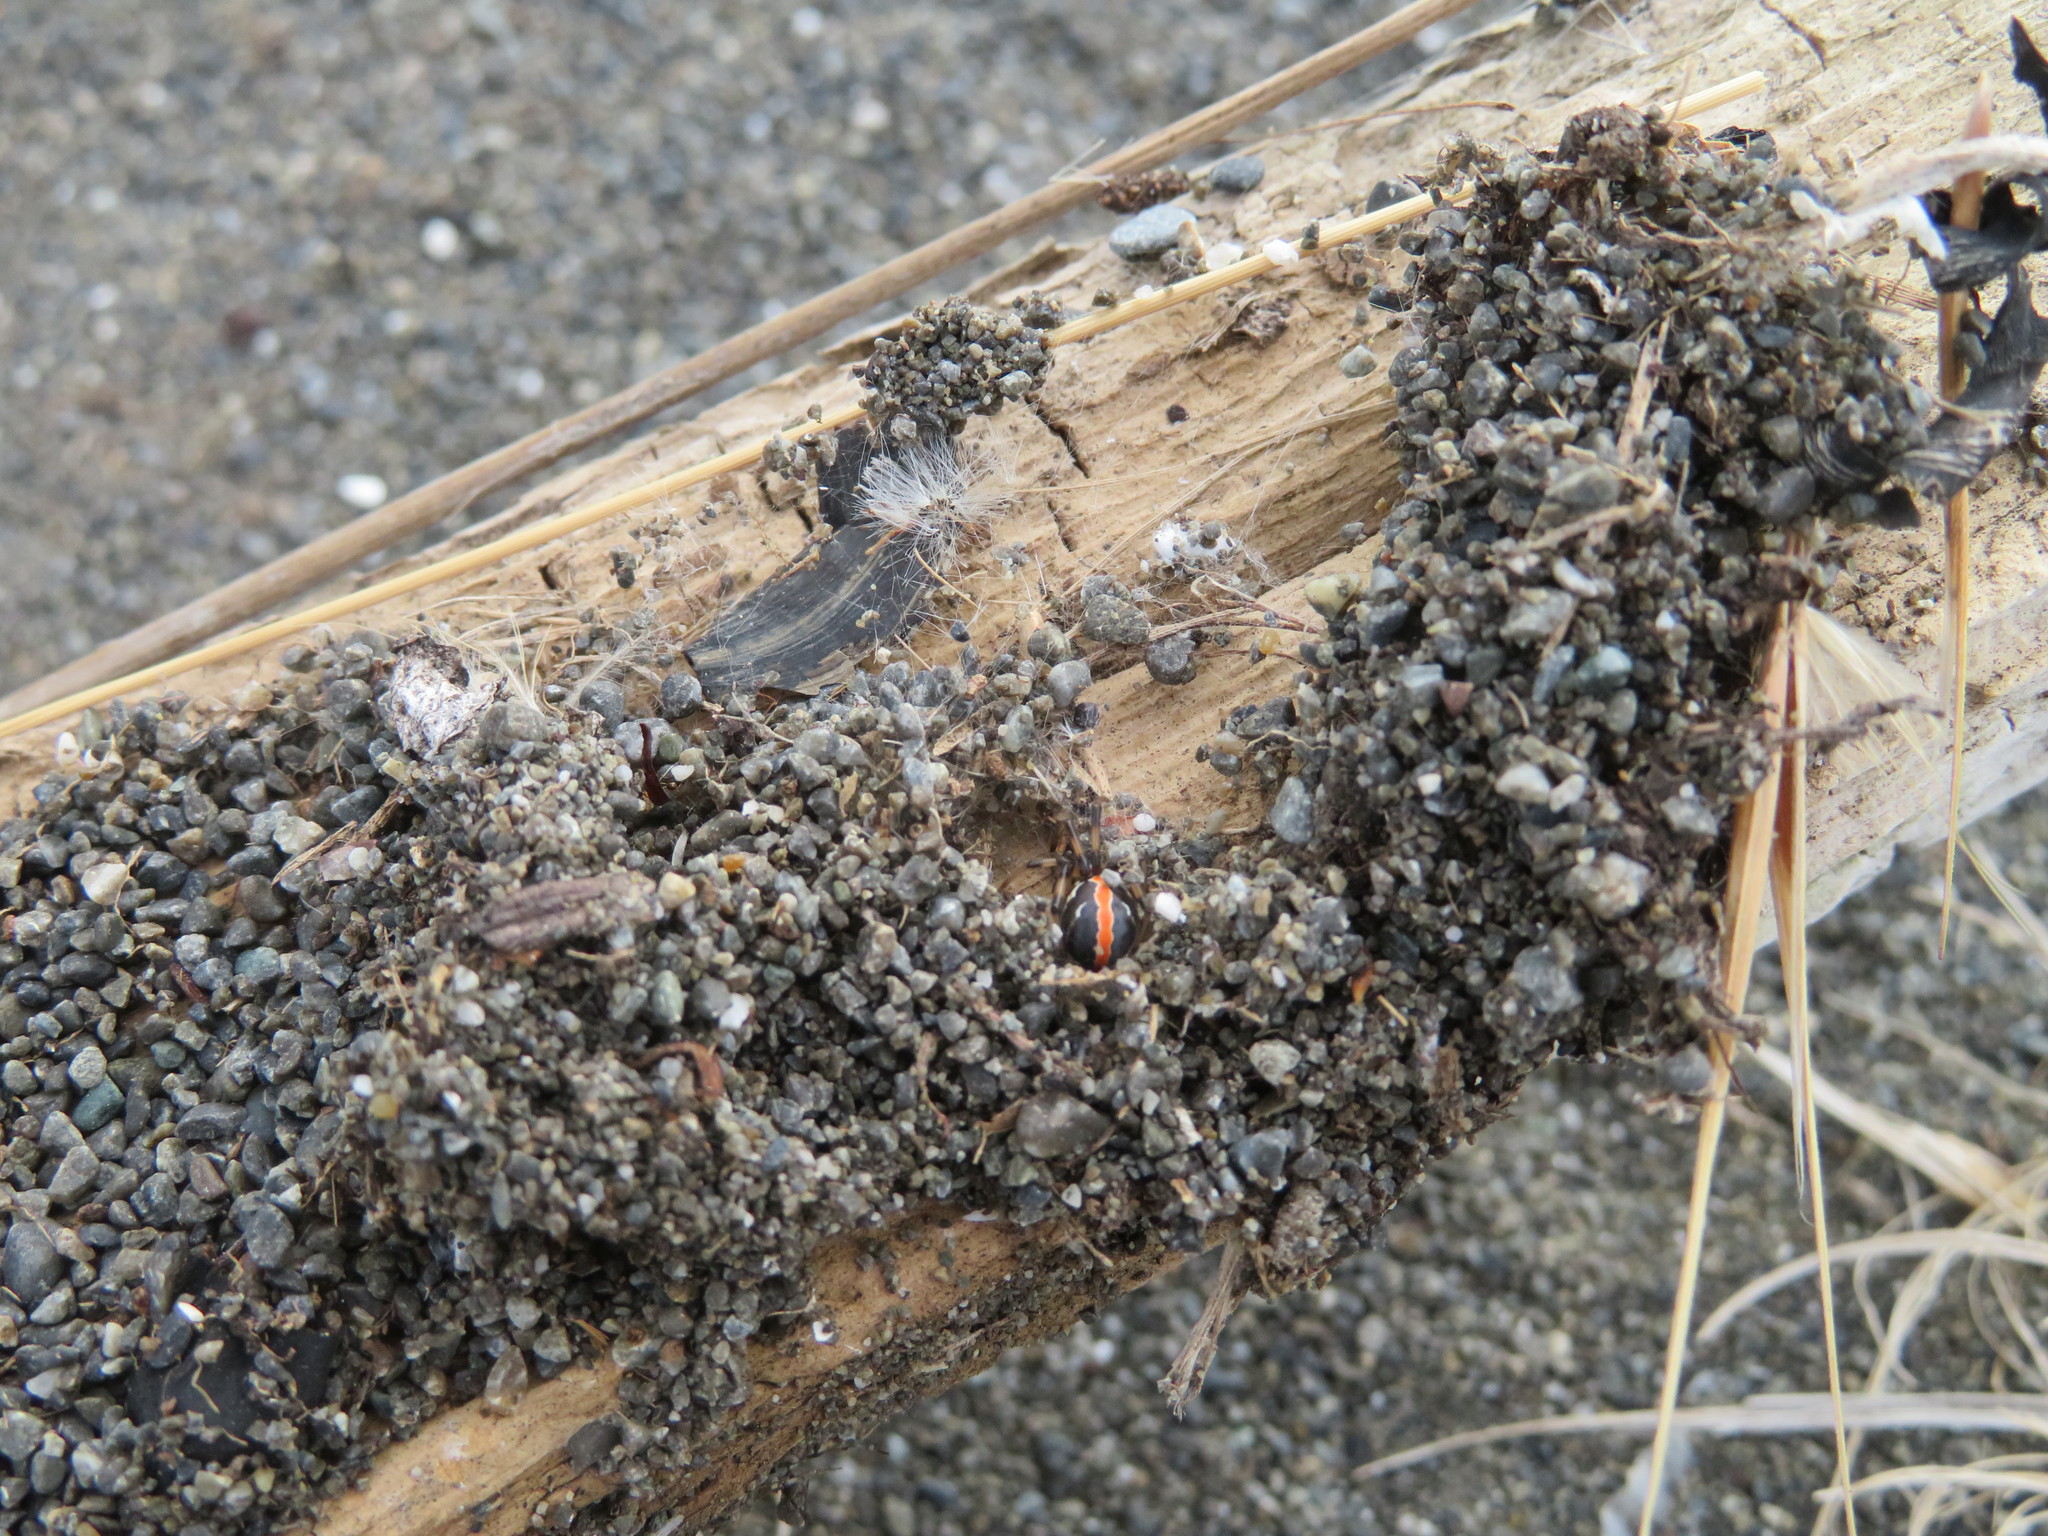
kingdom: Animalia
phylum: Arthropoda
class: Arachnida
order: Araneae
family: Theridiidae
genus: Latrodectus
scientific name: Latrodectus katipo
